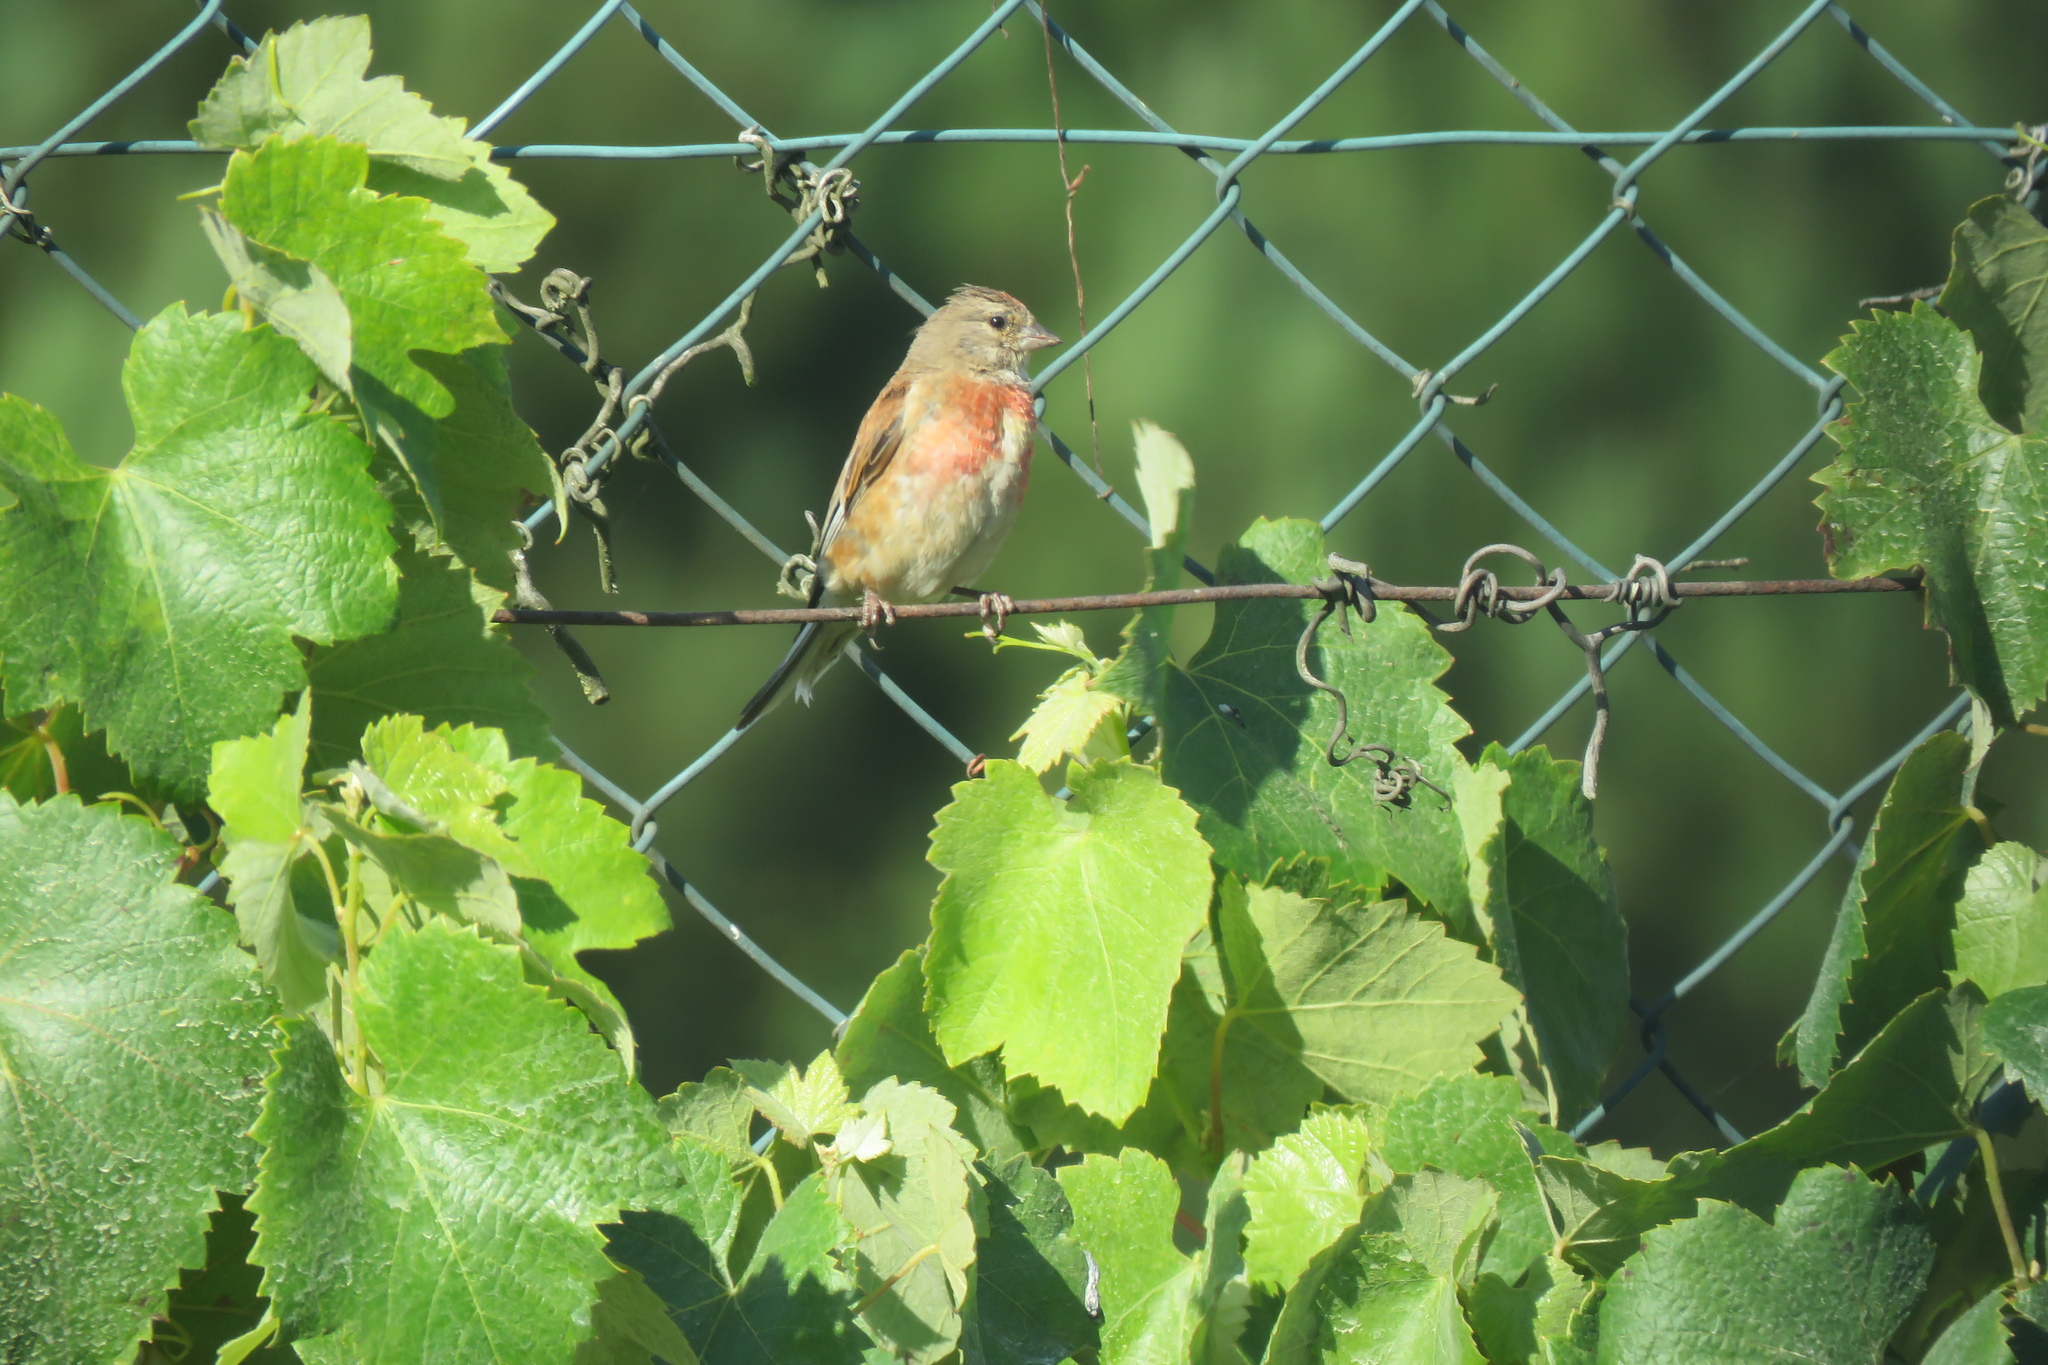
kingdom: Animalia
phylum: Chordata
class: Aves
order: Passeriformes
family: Fringillidae
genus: Linaria
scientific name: Linaria cannabina
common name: Common linnet
